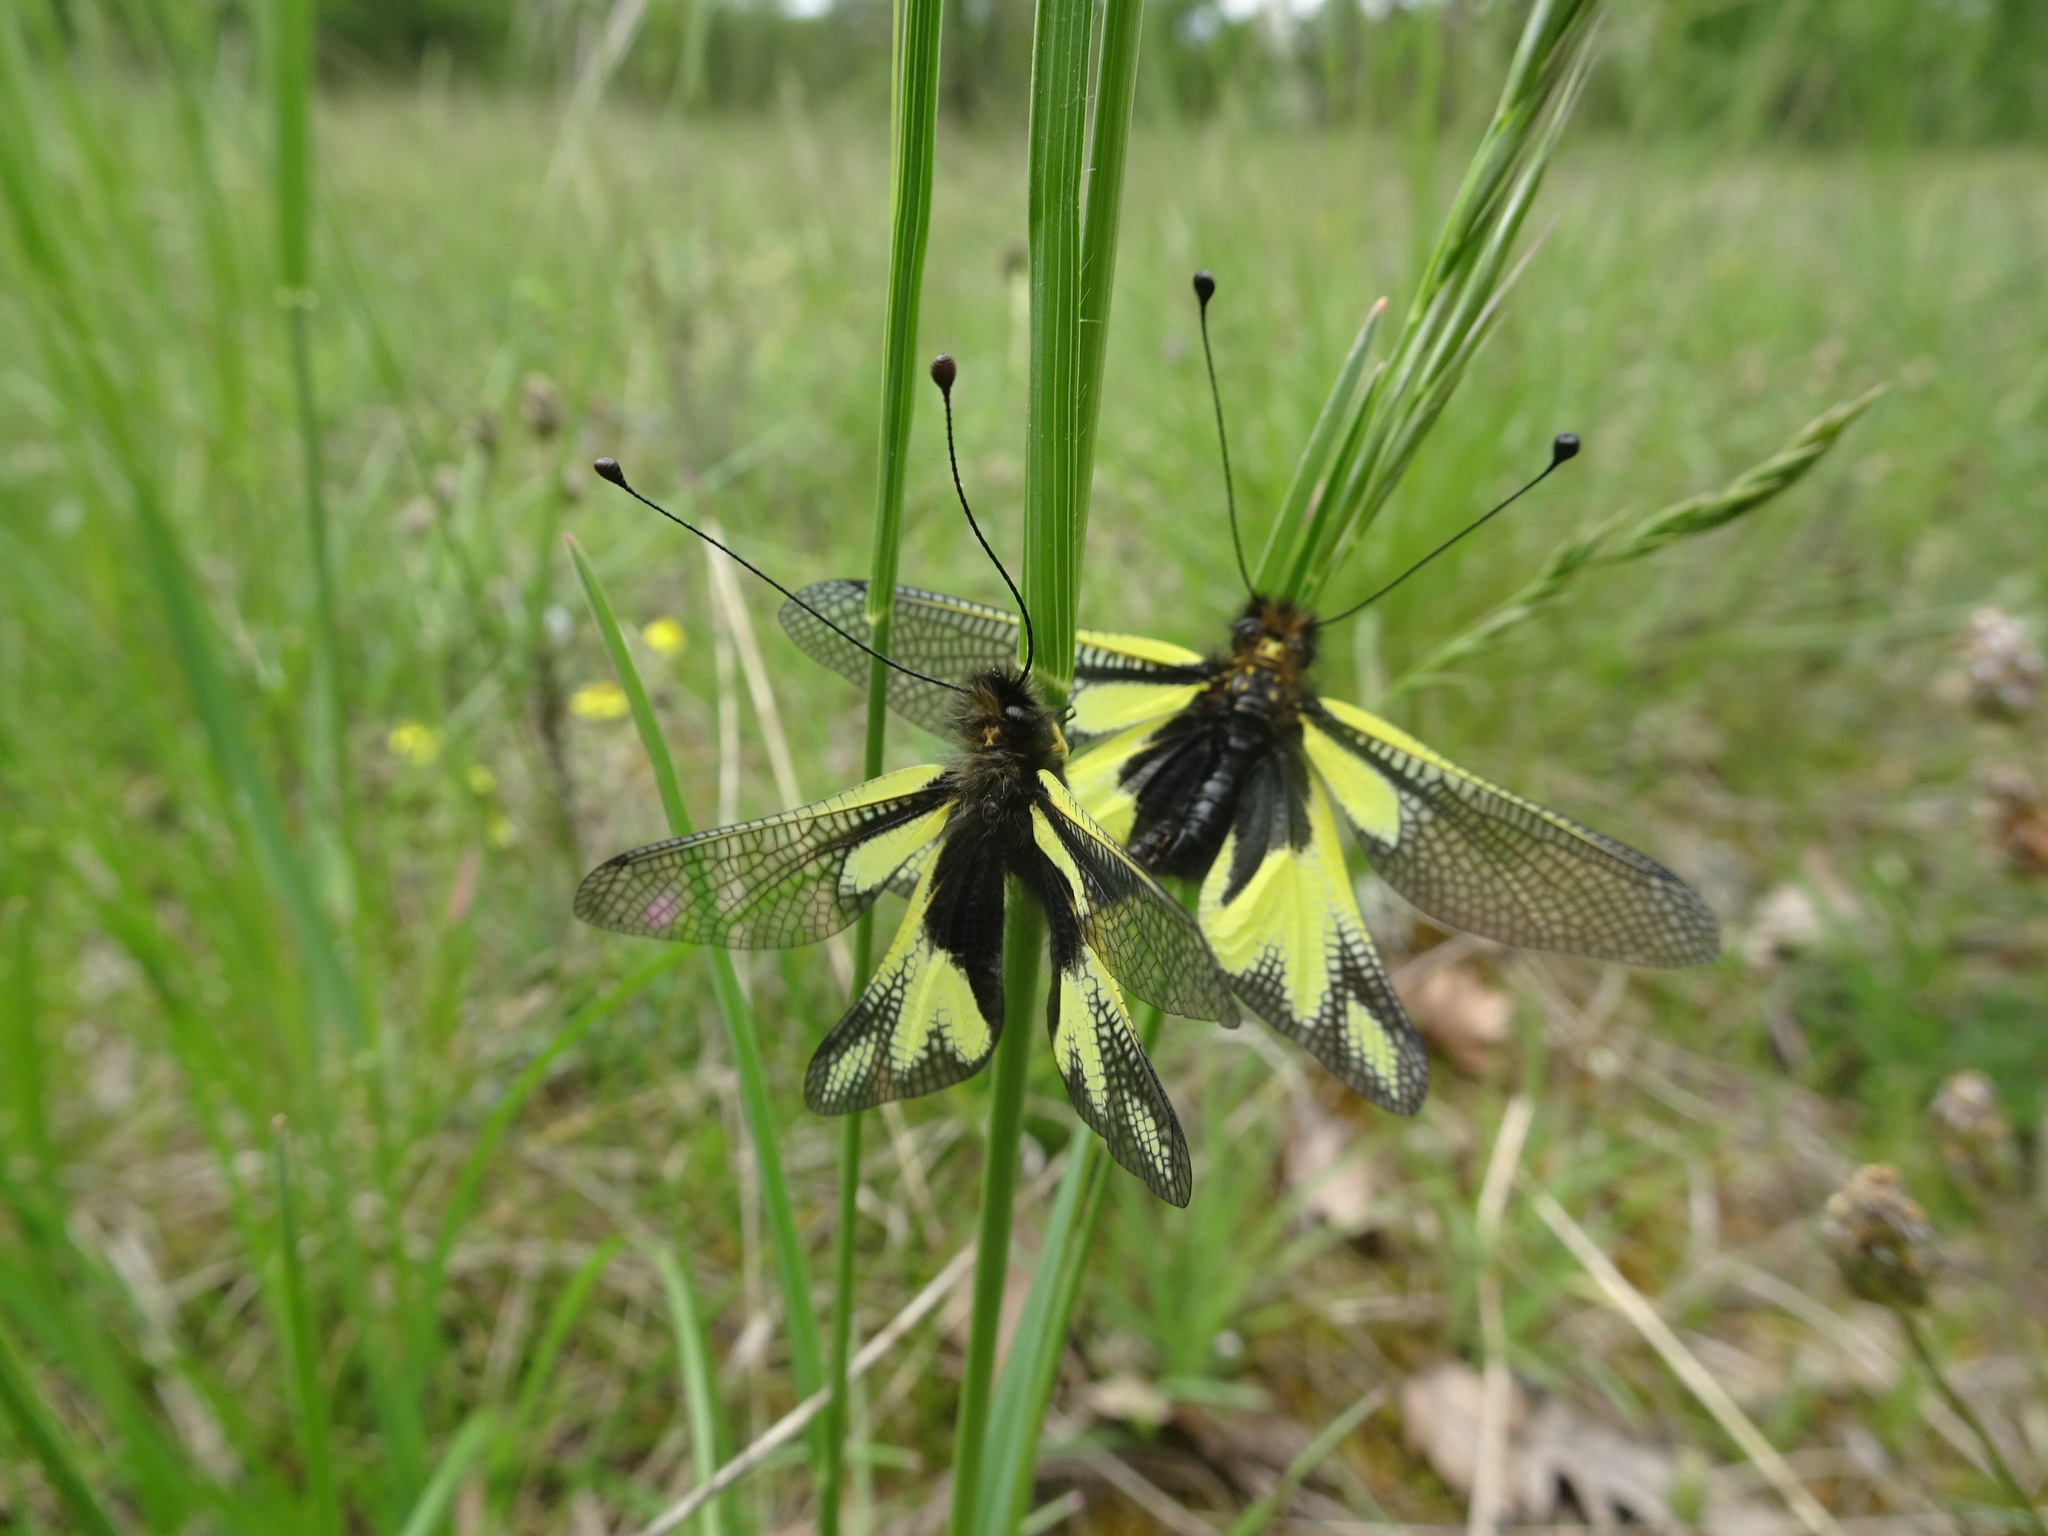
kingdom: Animalia
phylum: Arthropoda
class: Insecta
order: Neuroptera
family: Ascalaphidae
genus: Libelloides
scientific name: Libelloides coccajus
